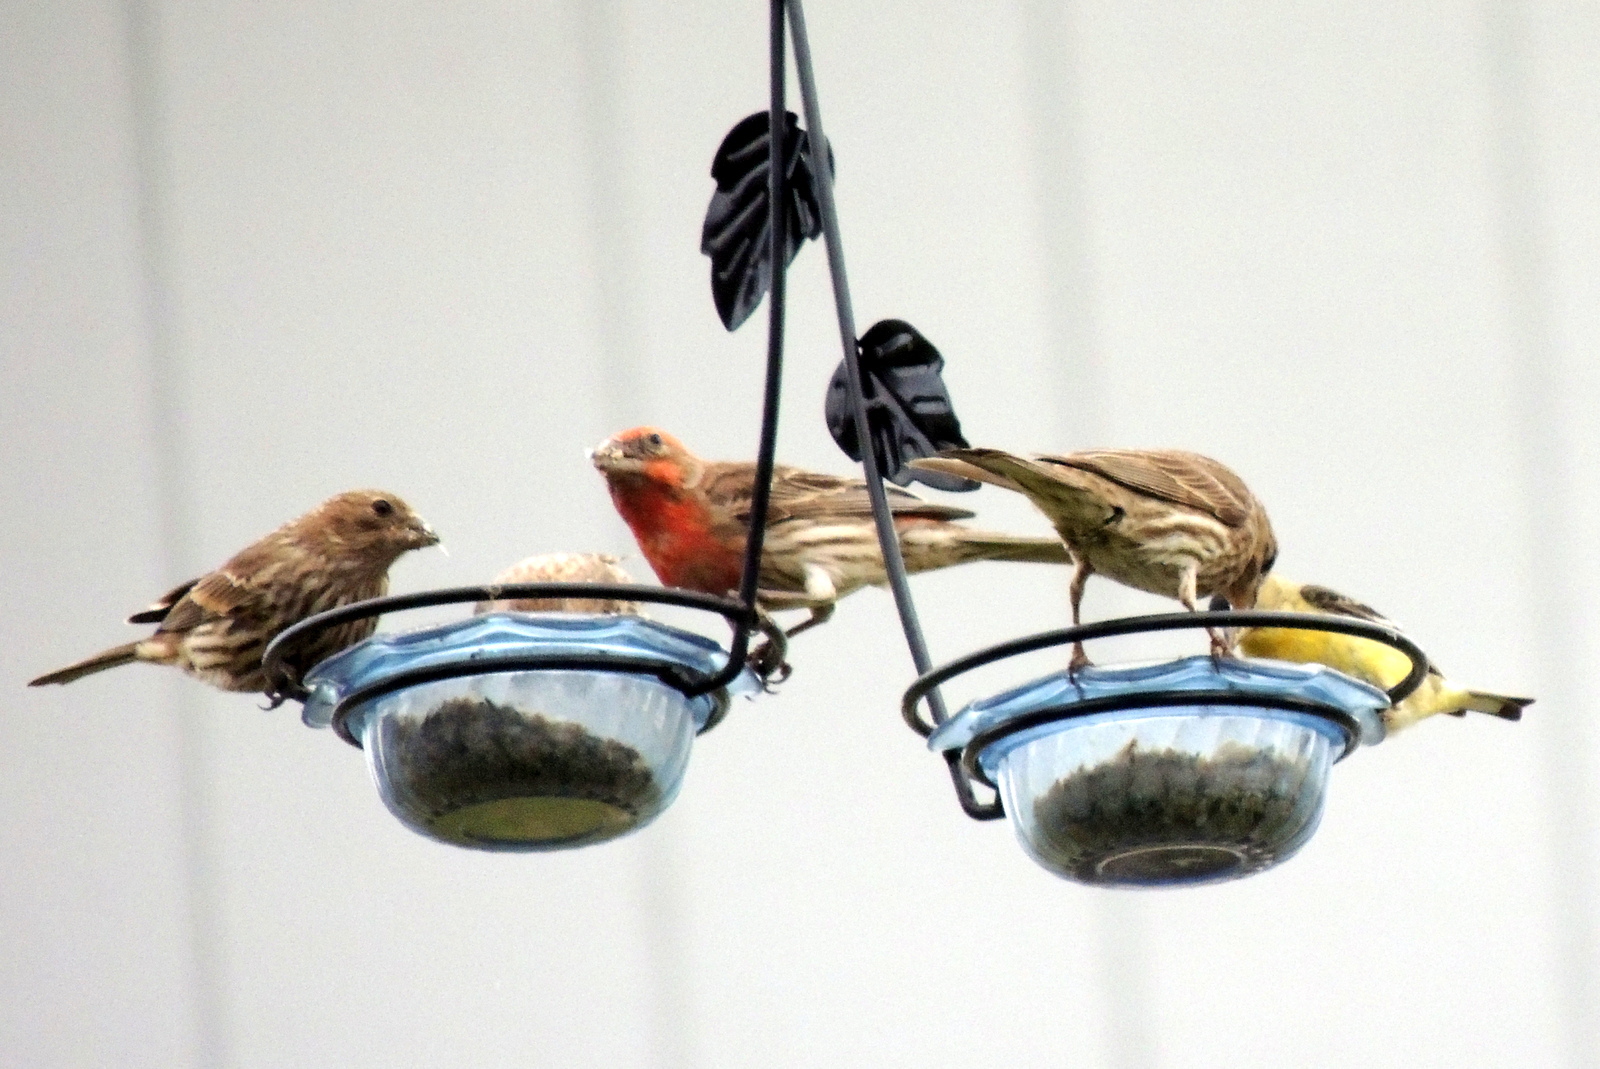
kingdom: Animalia
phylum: Chordata
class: Aves
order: Passeriformes
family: Fringillidae
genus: Spinus
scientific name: Spinus psaltria
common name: Lesser goldfinch
